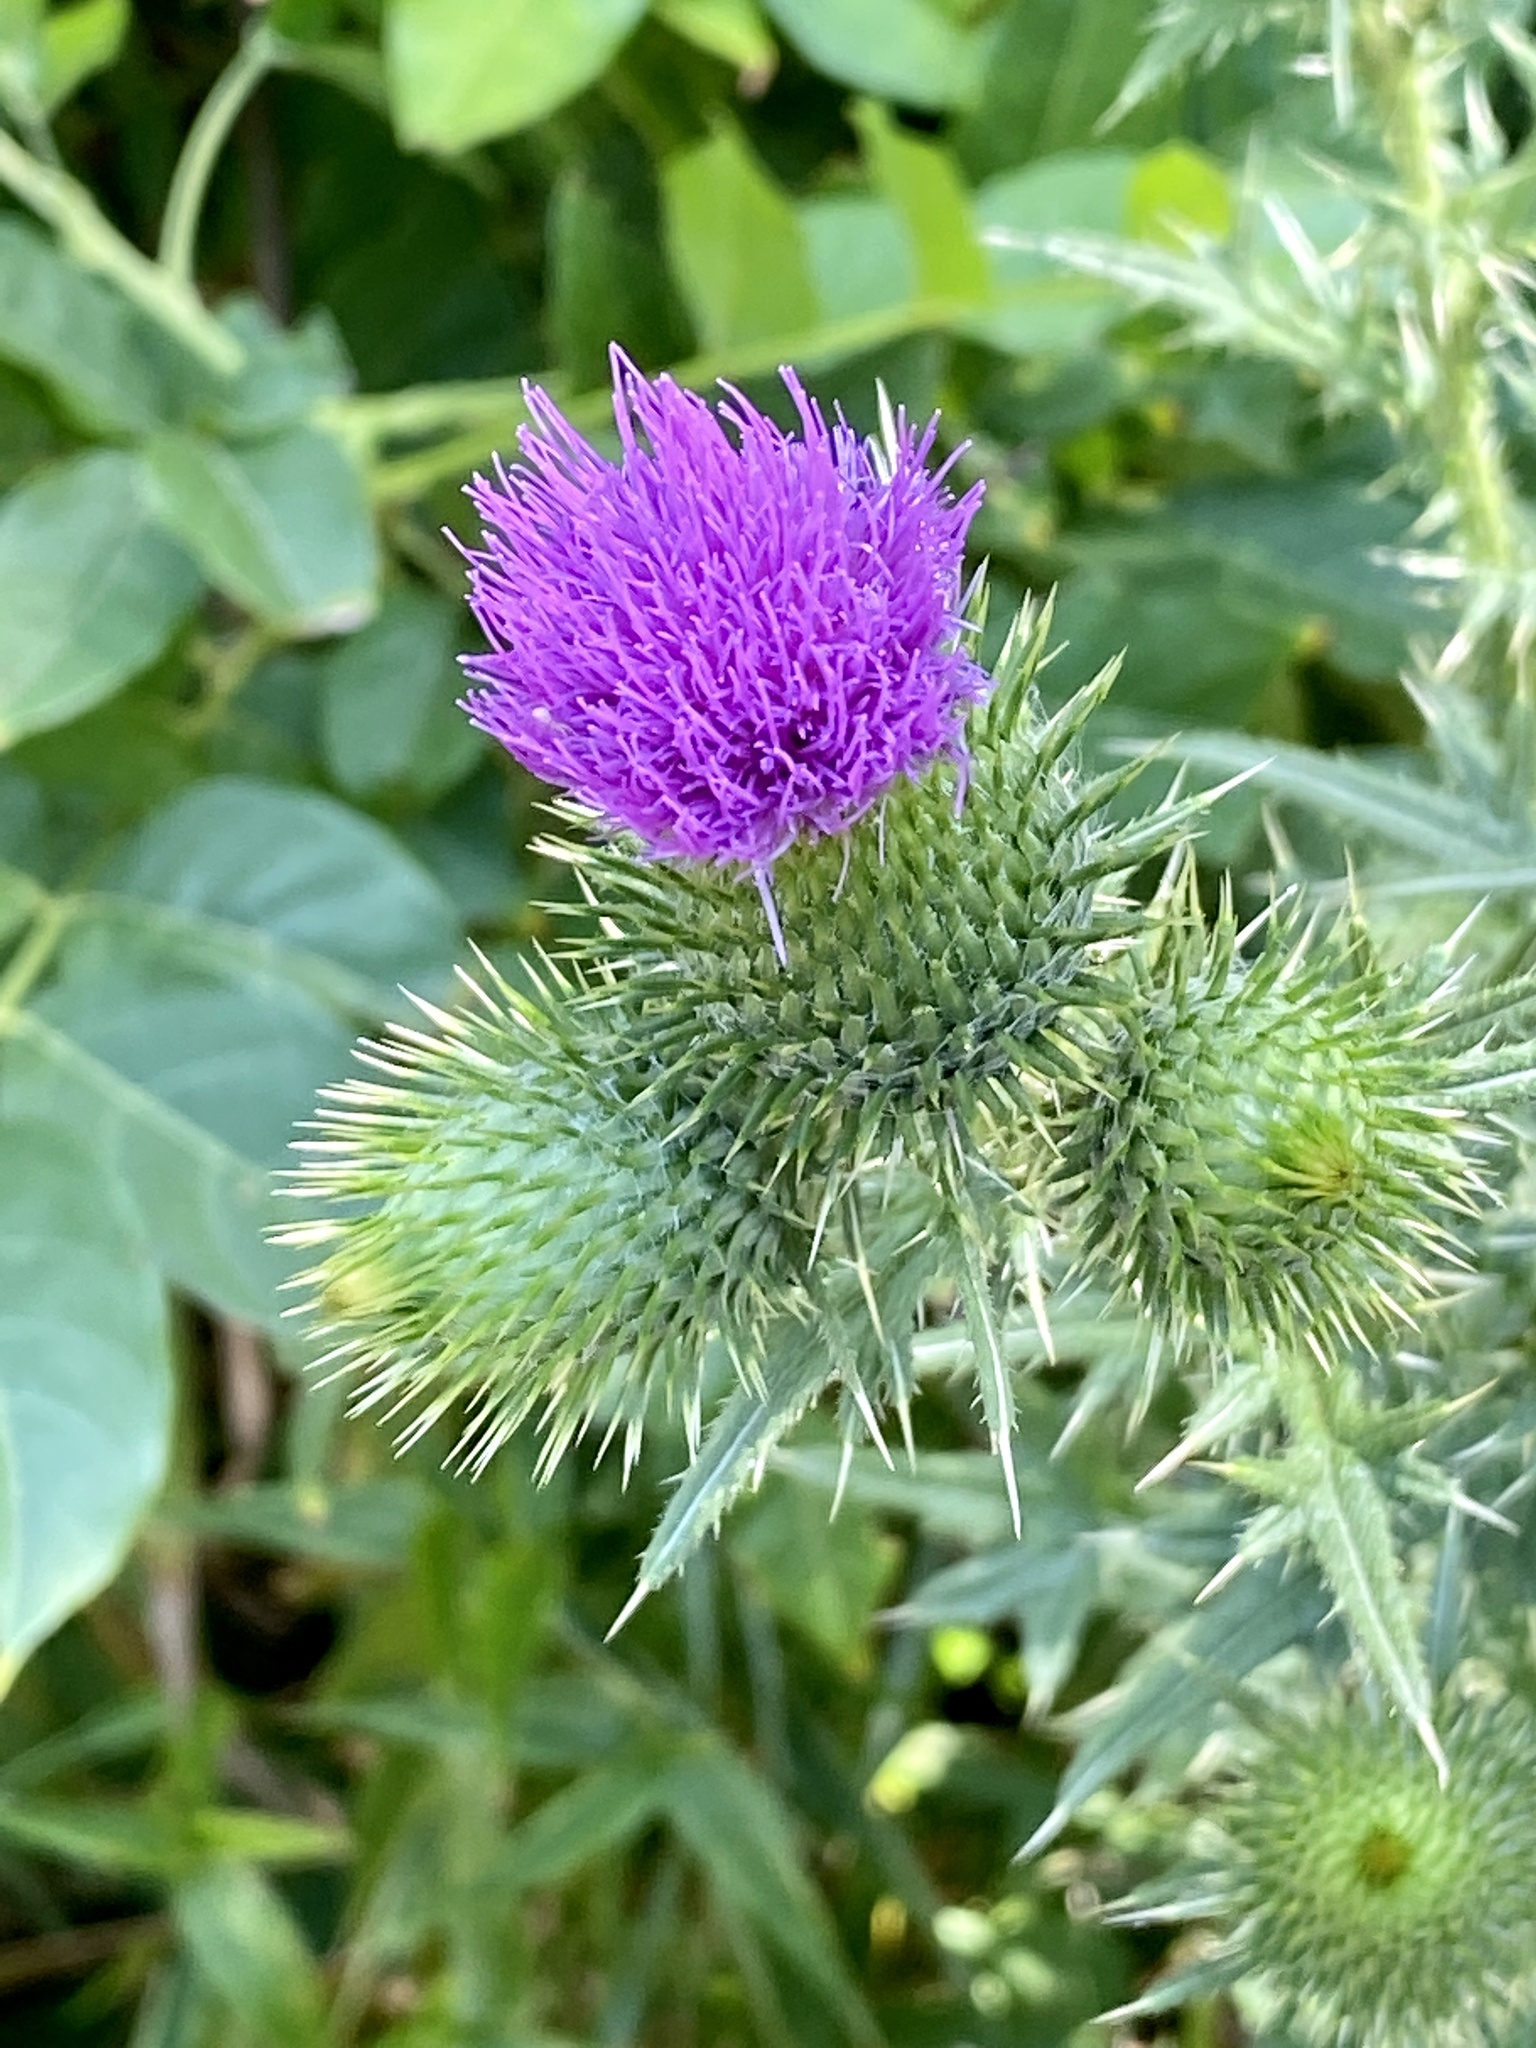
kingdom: Plantae
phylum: Tracheophyta
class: Magnoliopsida
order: Asterales
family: Asteraceae
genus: Cirsium
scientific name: Cirsium vulgare
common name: Bull thistle
